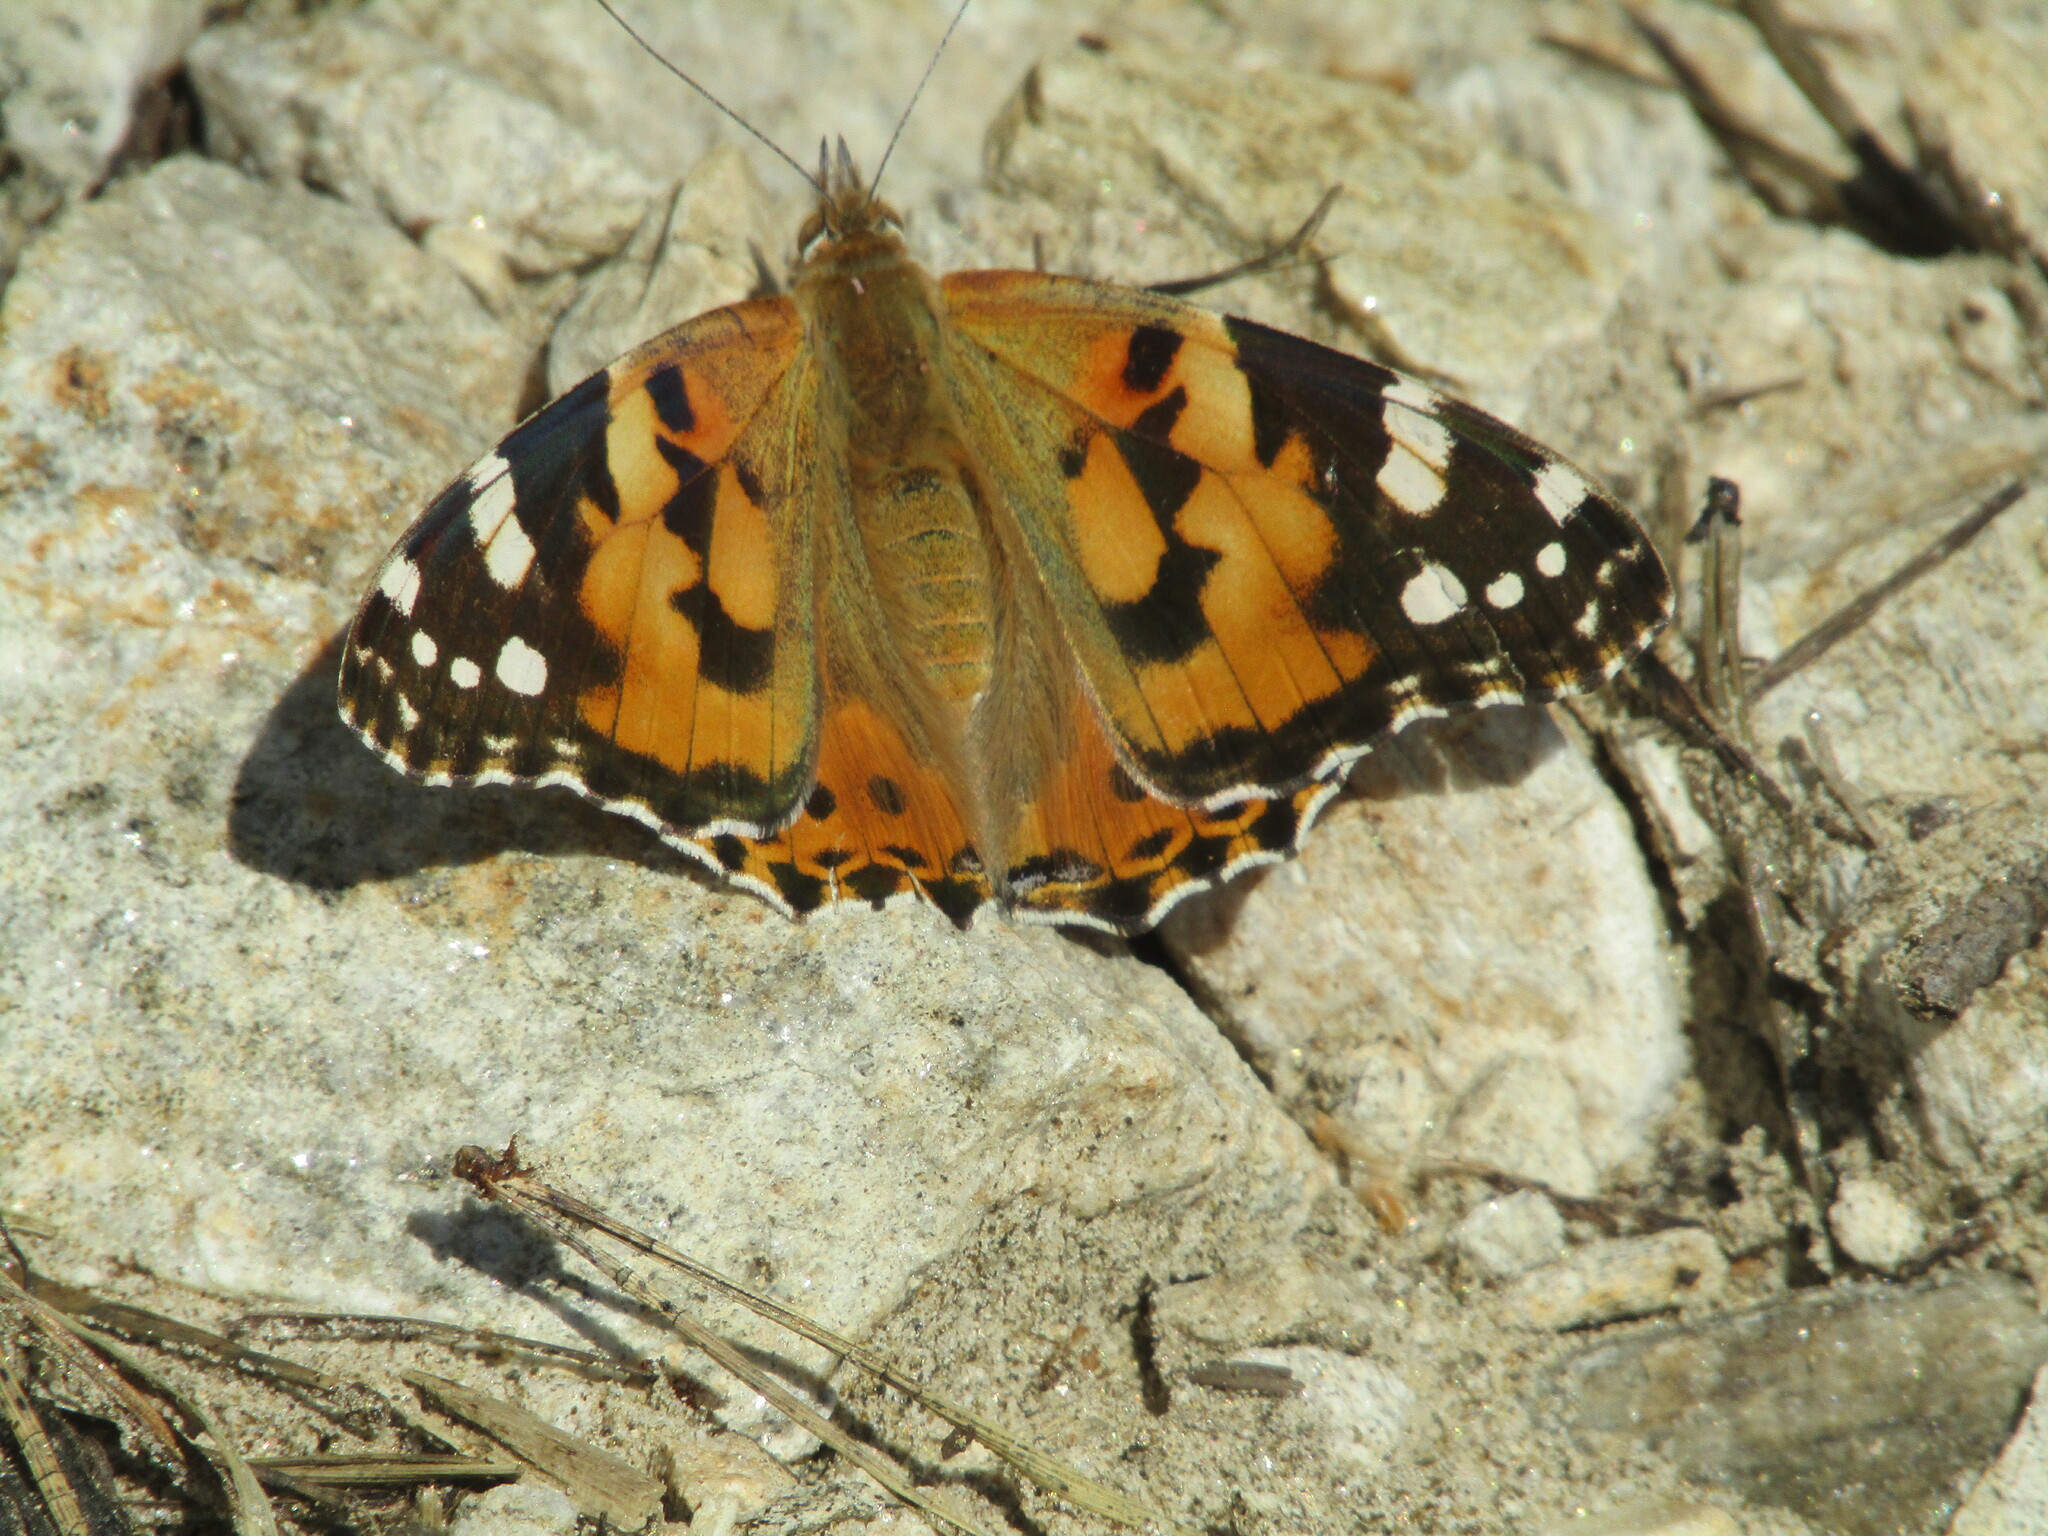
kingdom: Animalia
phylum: Arthropoda
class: Insecta
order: Lepidoptera
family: Nymphalidae
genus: Vanessa
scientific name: Vanessa cardui
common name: Painted lady
